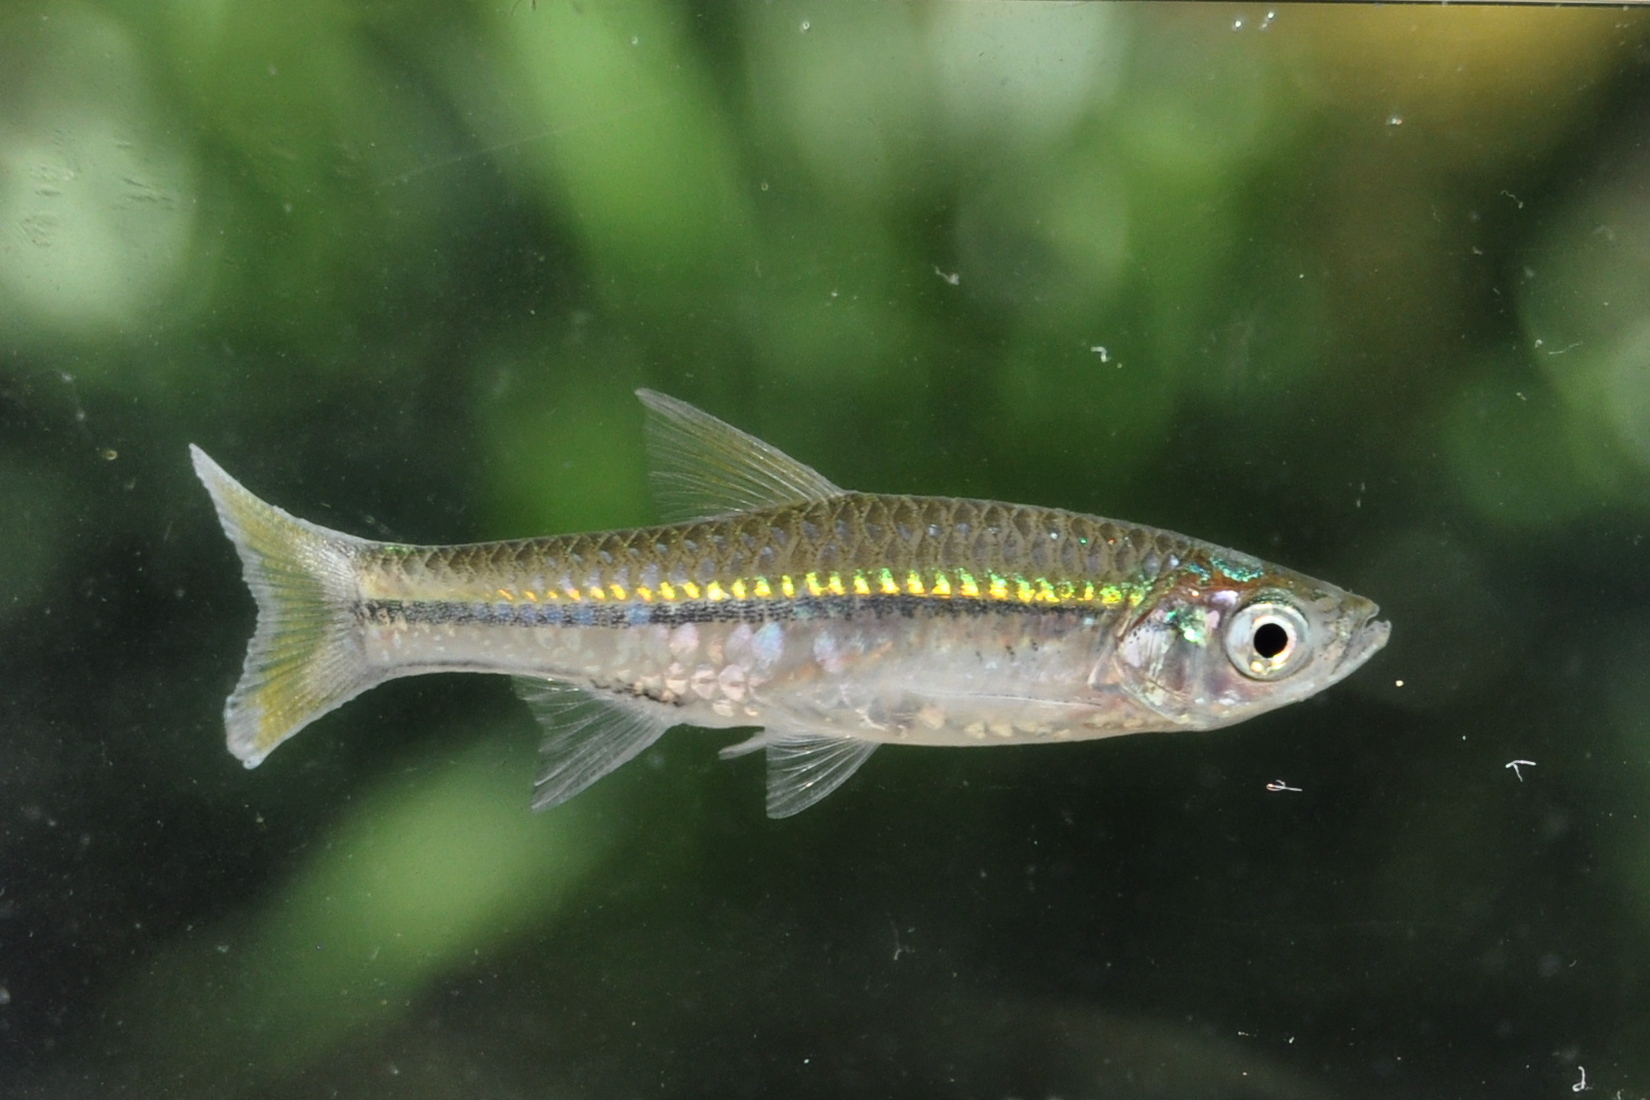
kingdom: Animalia
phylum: Chordata
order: Cypriniformes
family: Cyprinidae
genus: Rasbora
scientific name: Rasbora argyrotaenia
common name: Silver rasbora
